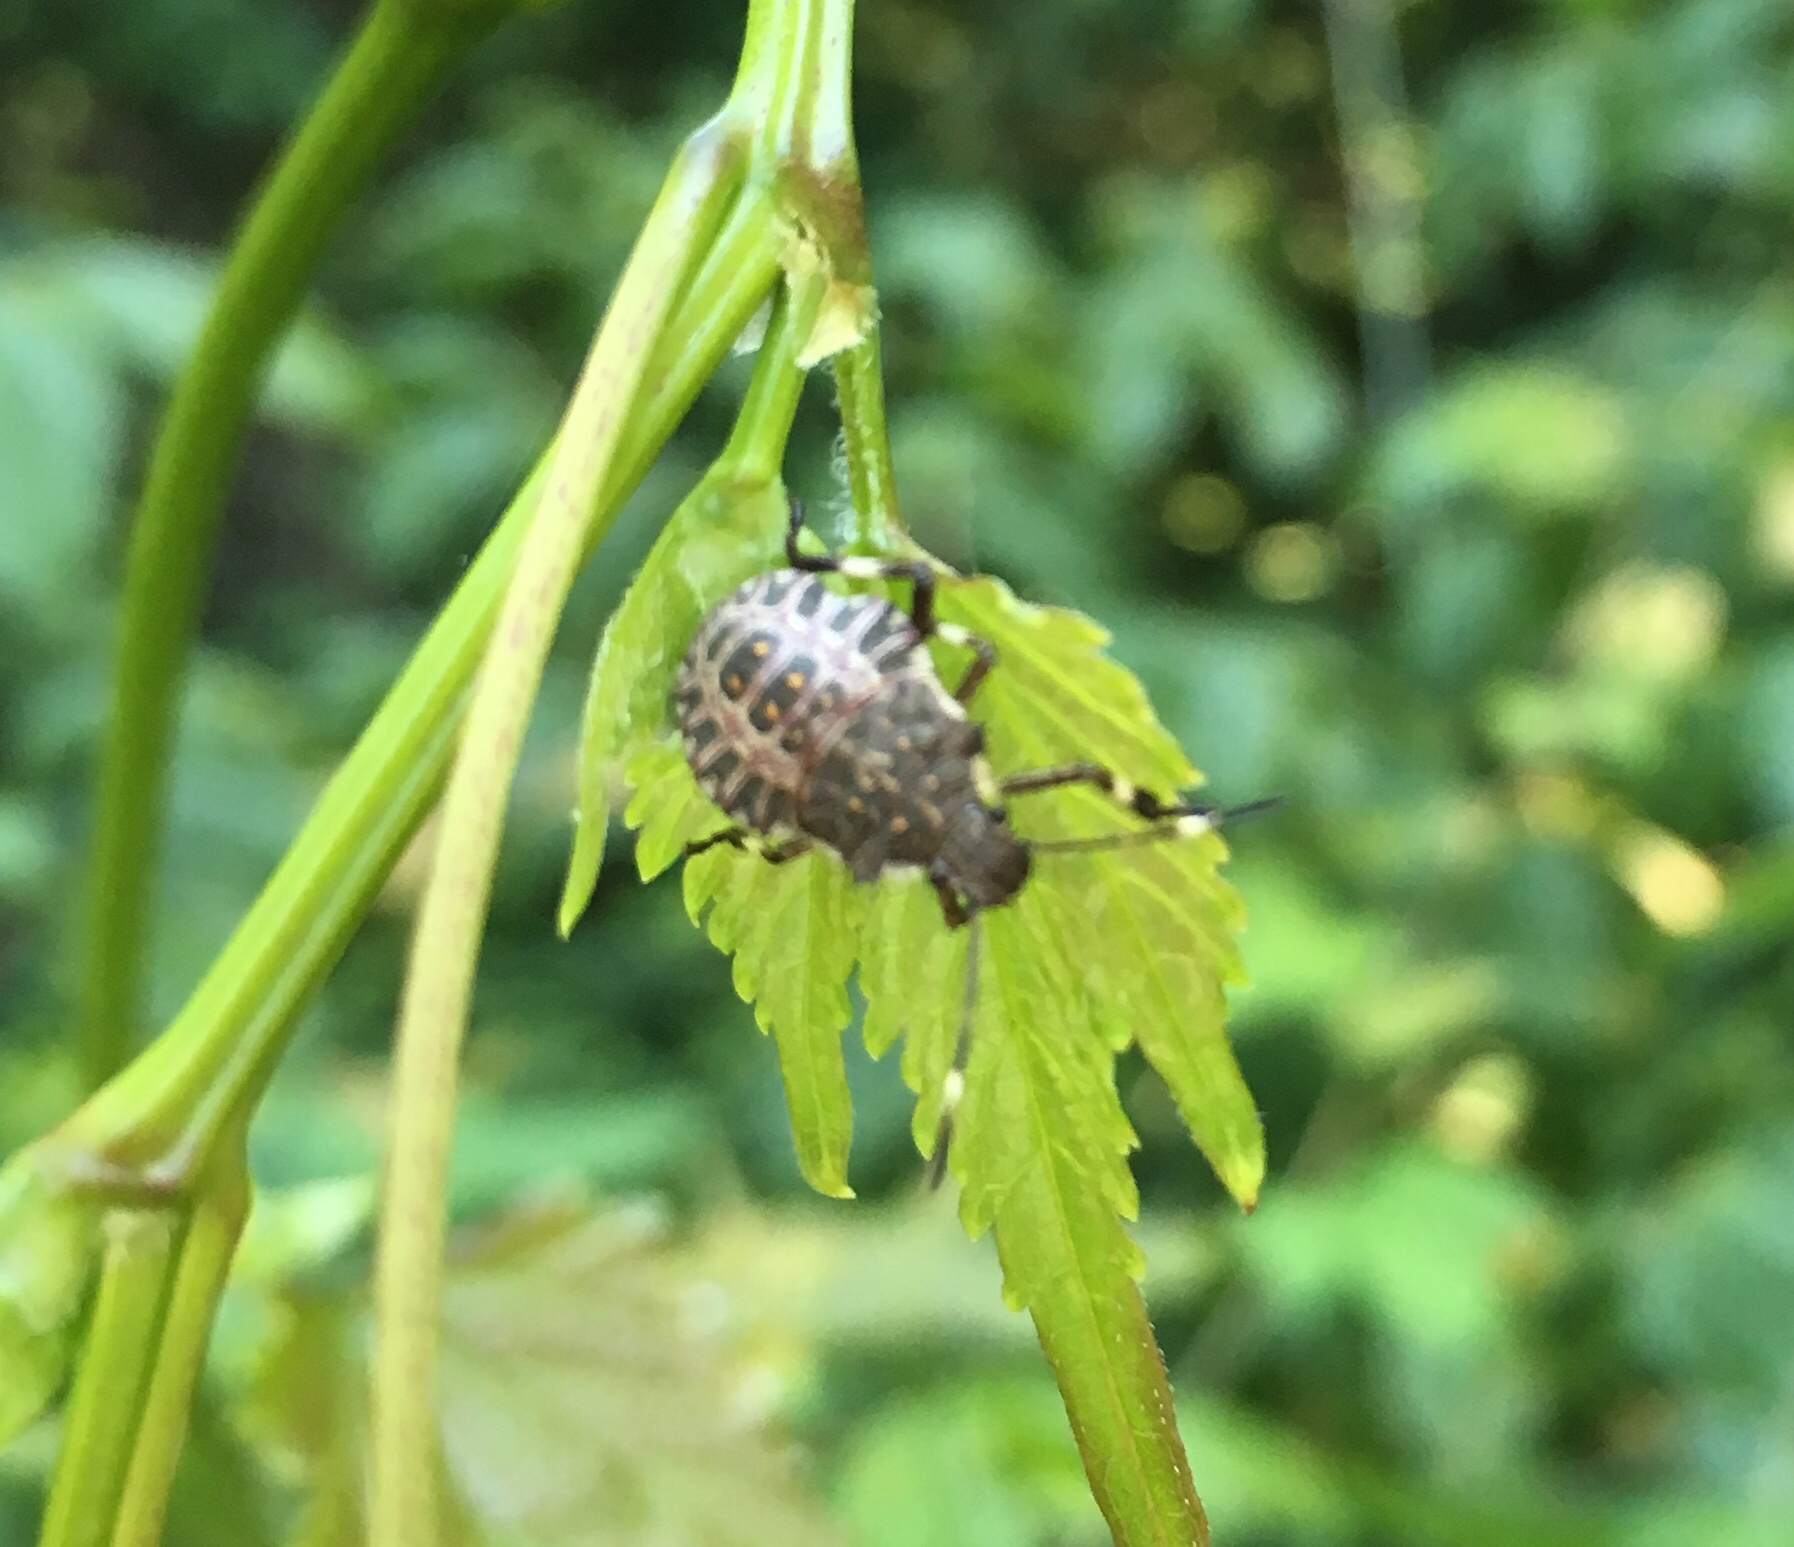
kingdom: Animalia
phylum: Arthropoda
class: Insecta
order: Hemiptera
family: Pentatomidae
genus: Halyomorpha
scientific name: Halyomorpha halys
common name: Brown marmorated stink bug
